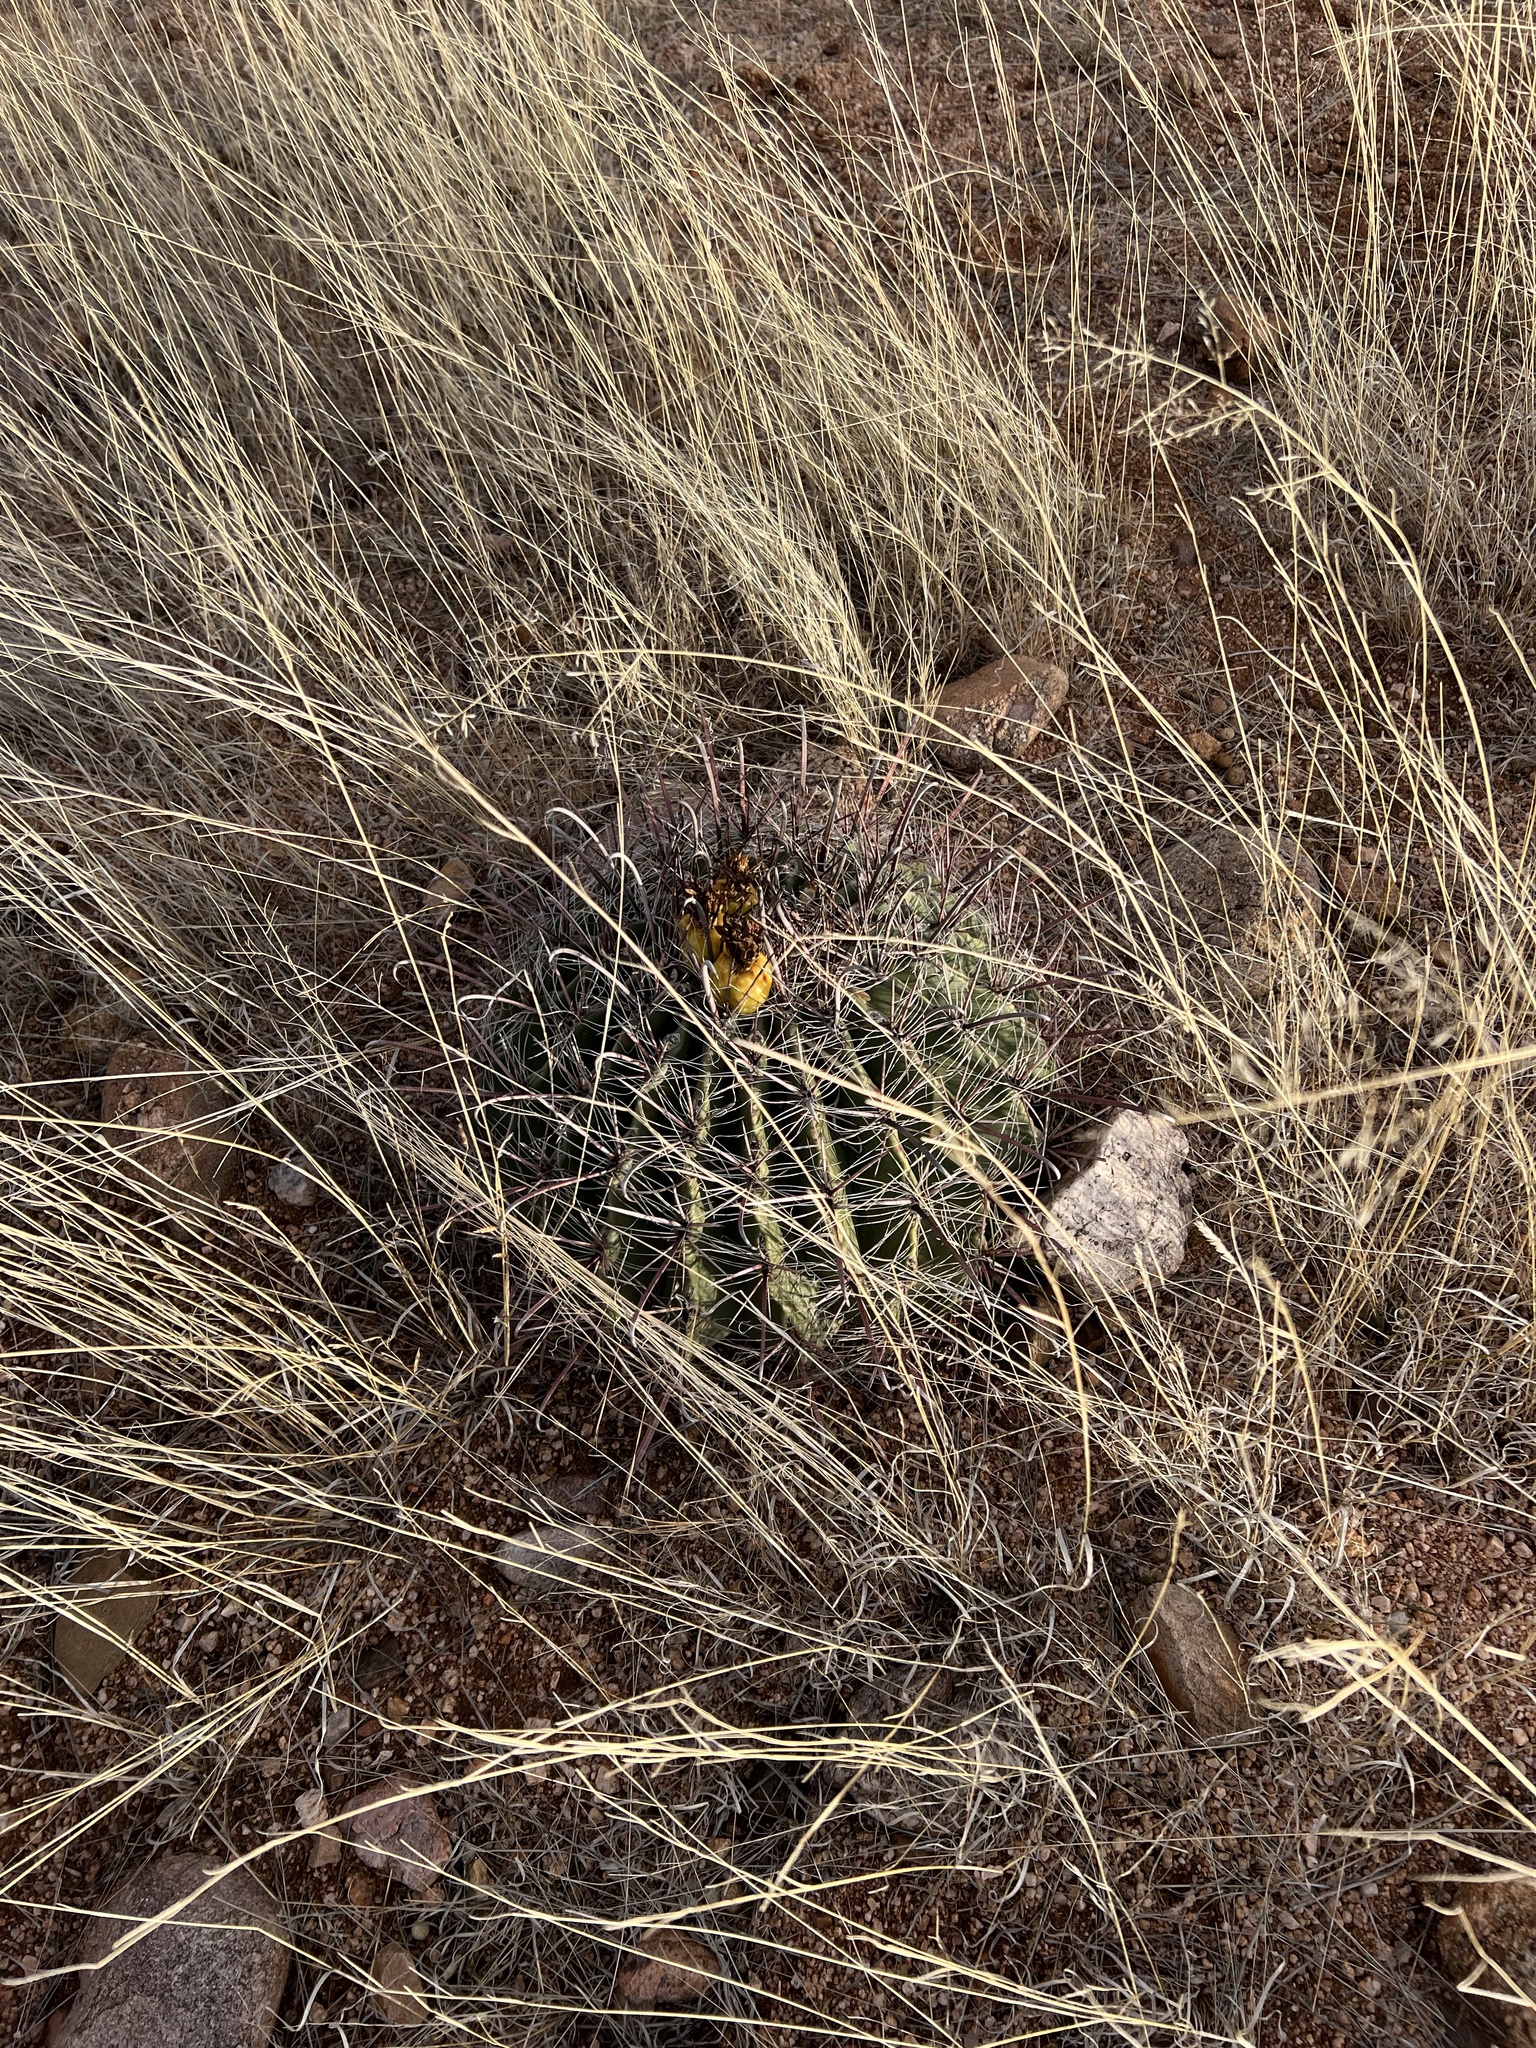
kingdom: Plantae
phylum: Tracheophyta
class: Magnoliopsida
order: Caryophyllales
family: Cactaceae
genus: Ferocactus
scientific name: Ferocactus wislizeni
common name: Candy barrel cactus
